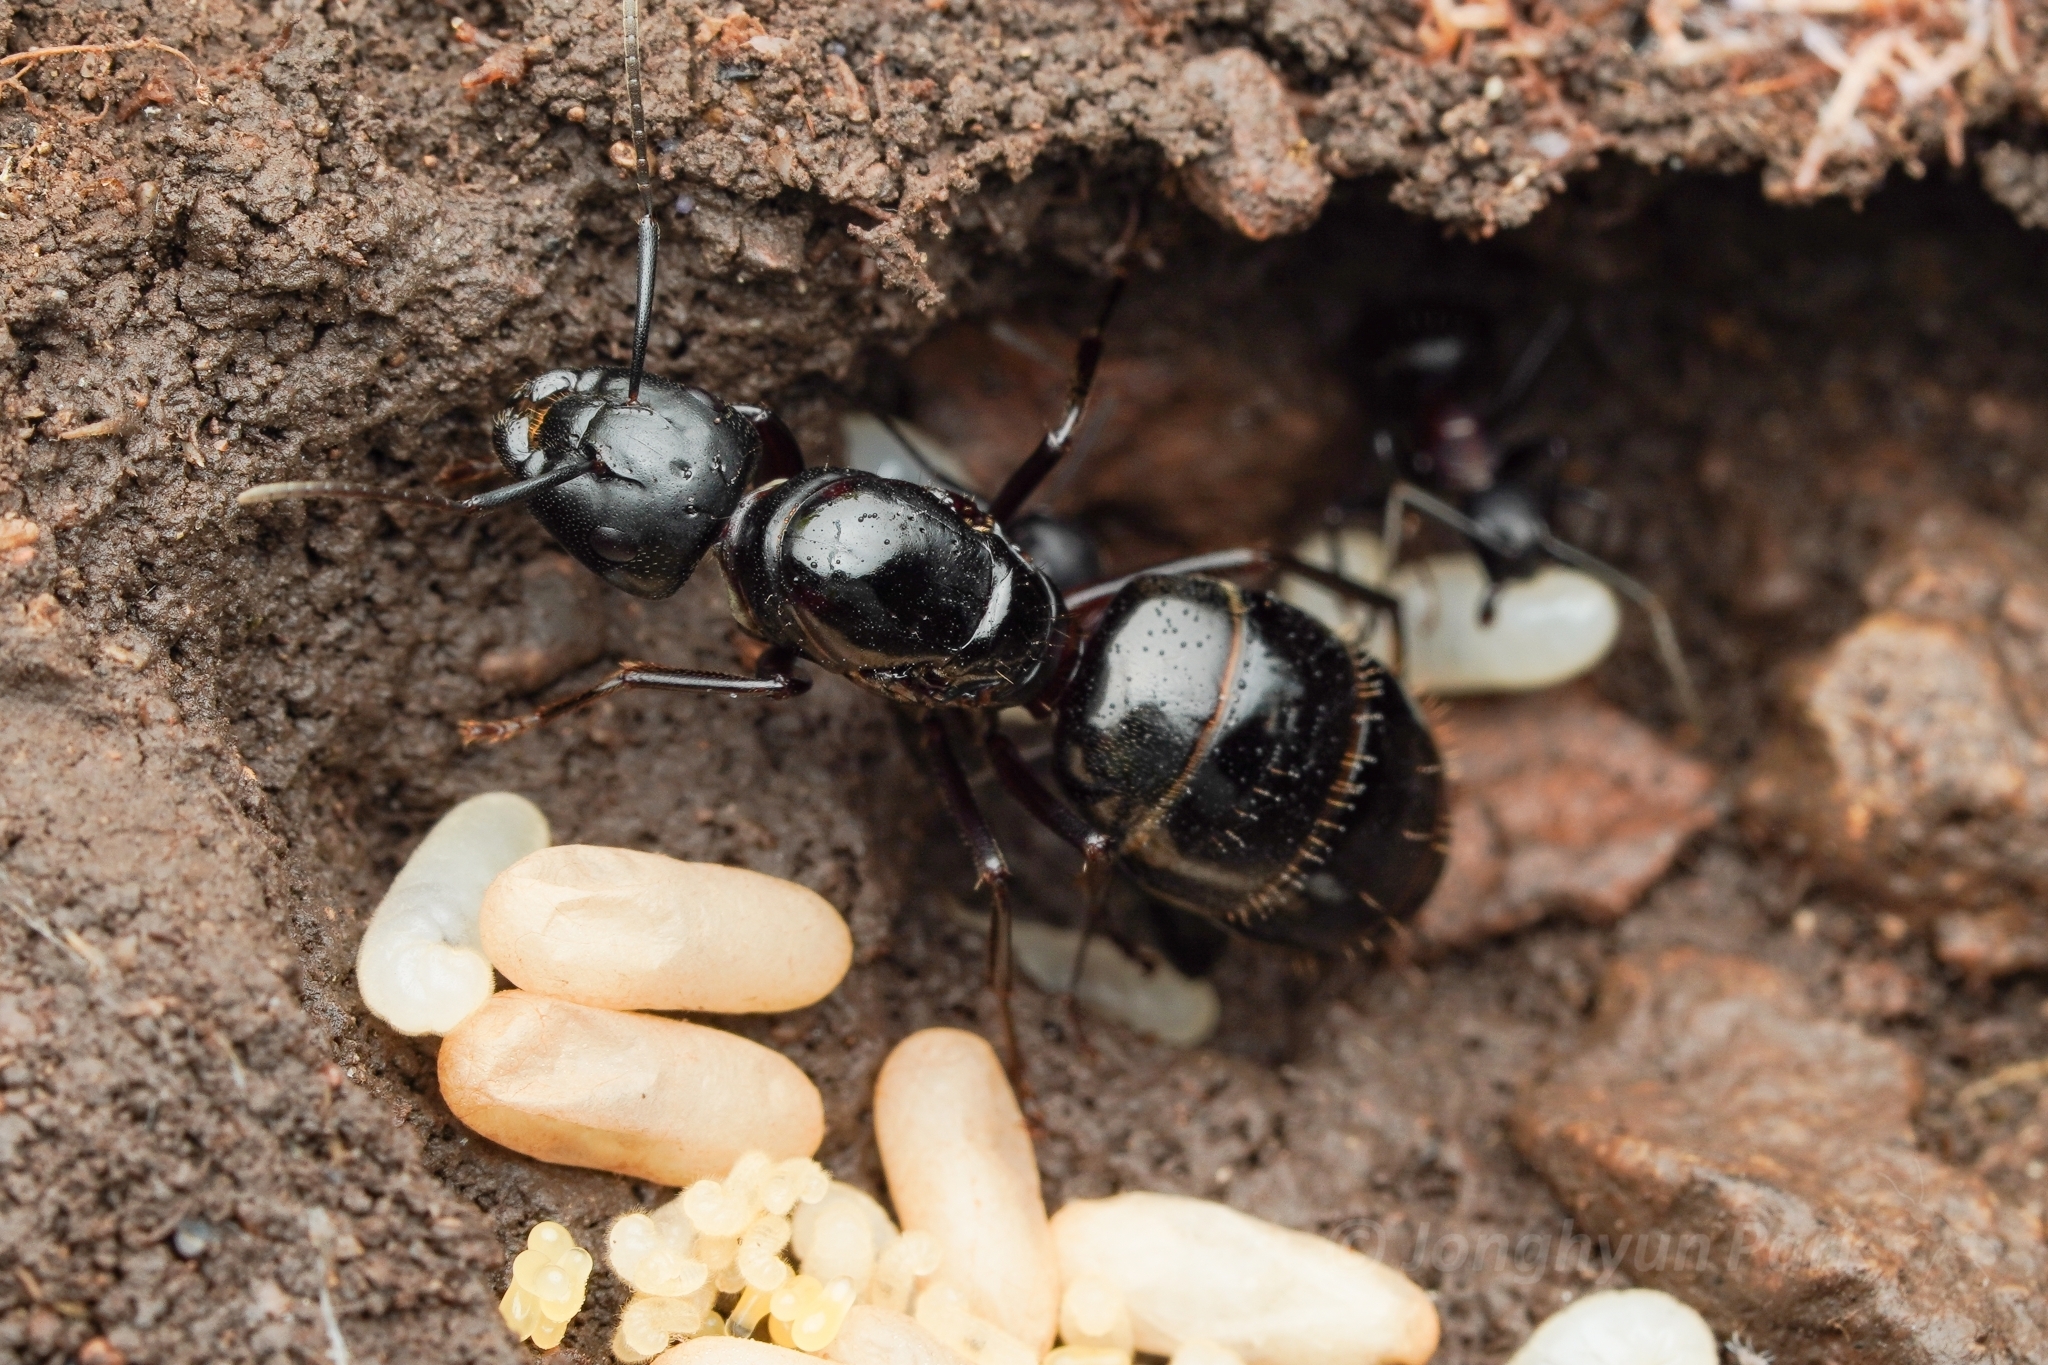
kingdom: Animalia
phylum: Arthropoda
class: Insecta
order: Hymenoptera
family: Formicidae
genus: Camponotus
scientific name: Camponotus atrox
